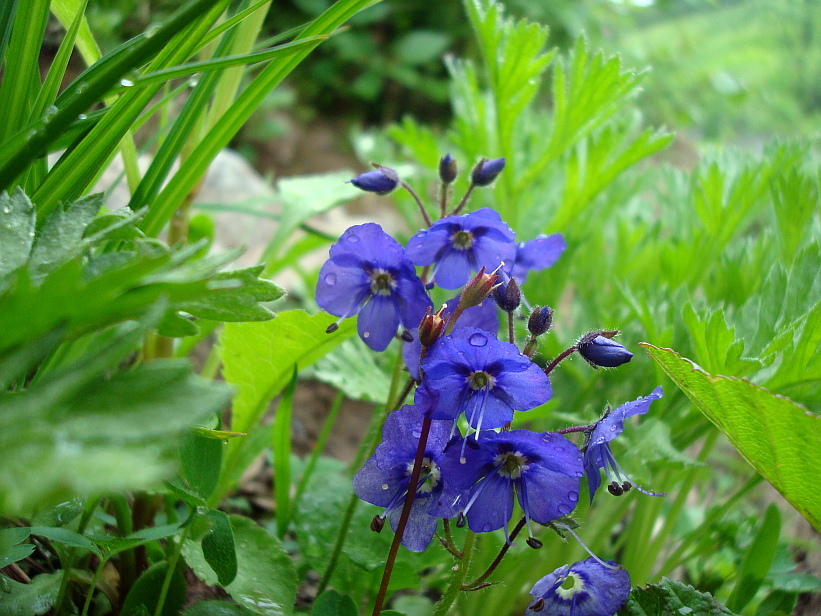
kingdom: Plantae
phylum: Tracheophyta
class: Magnoliopsida
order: Lamiales
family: Plantaginaceae
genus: Veronica
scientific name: Veronica grandiflora
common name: Large-flower speedwell
